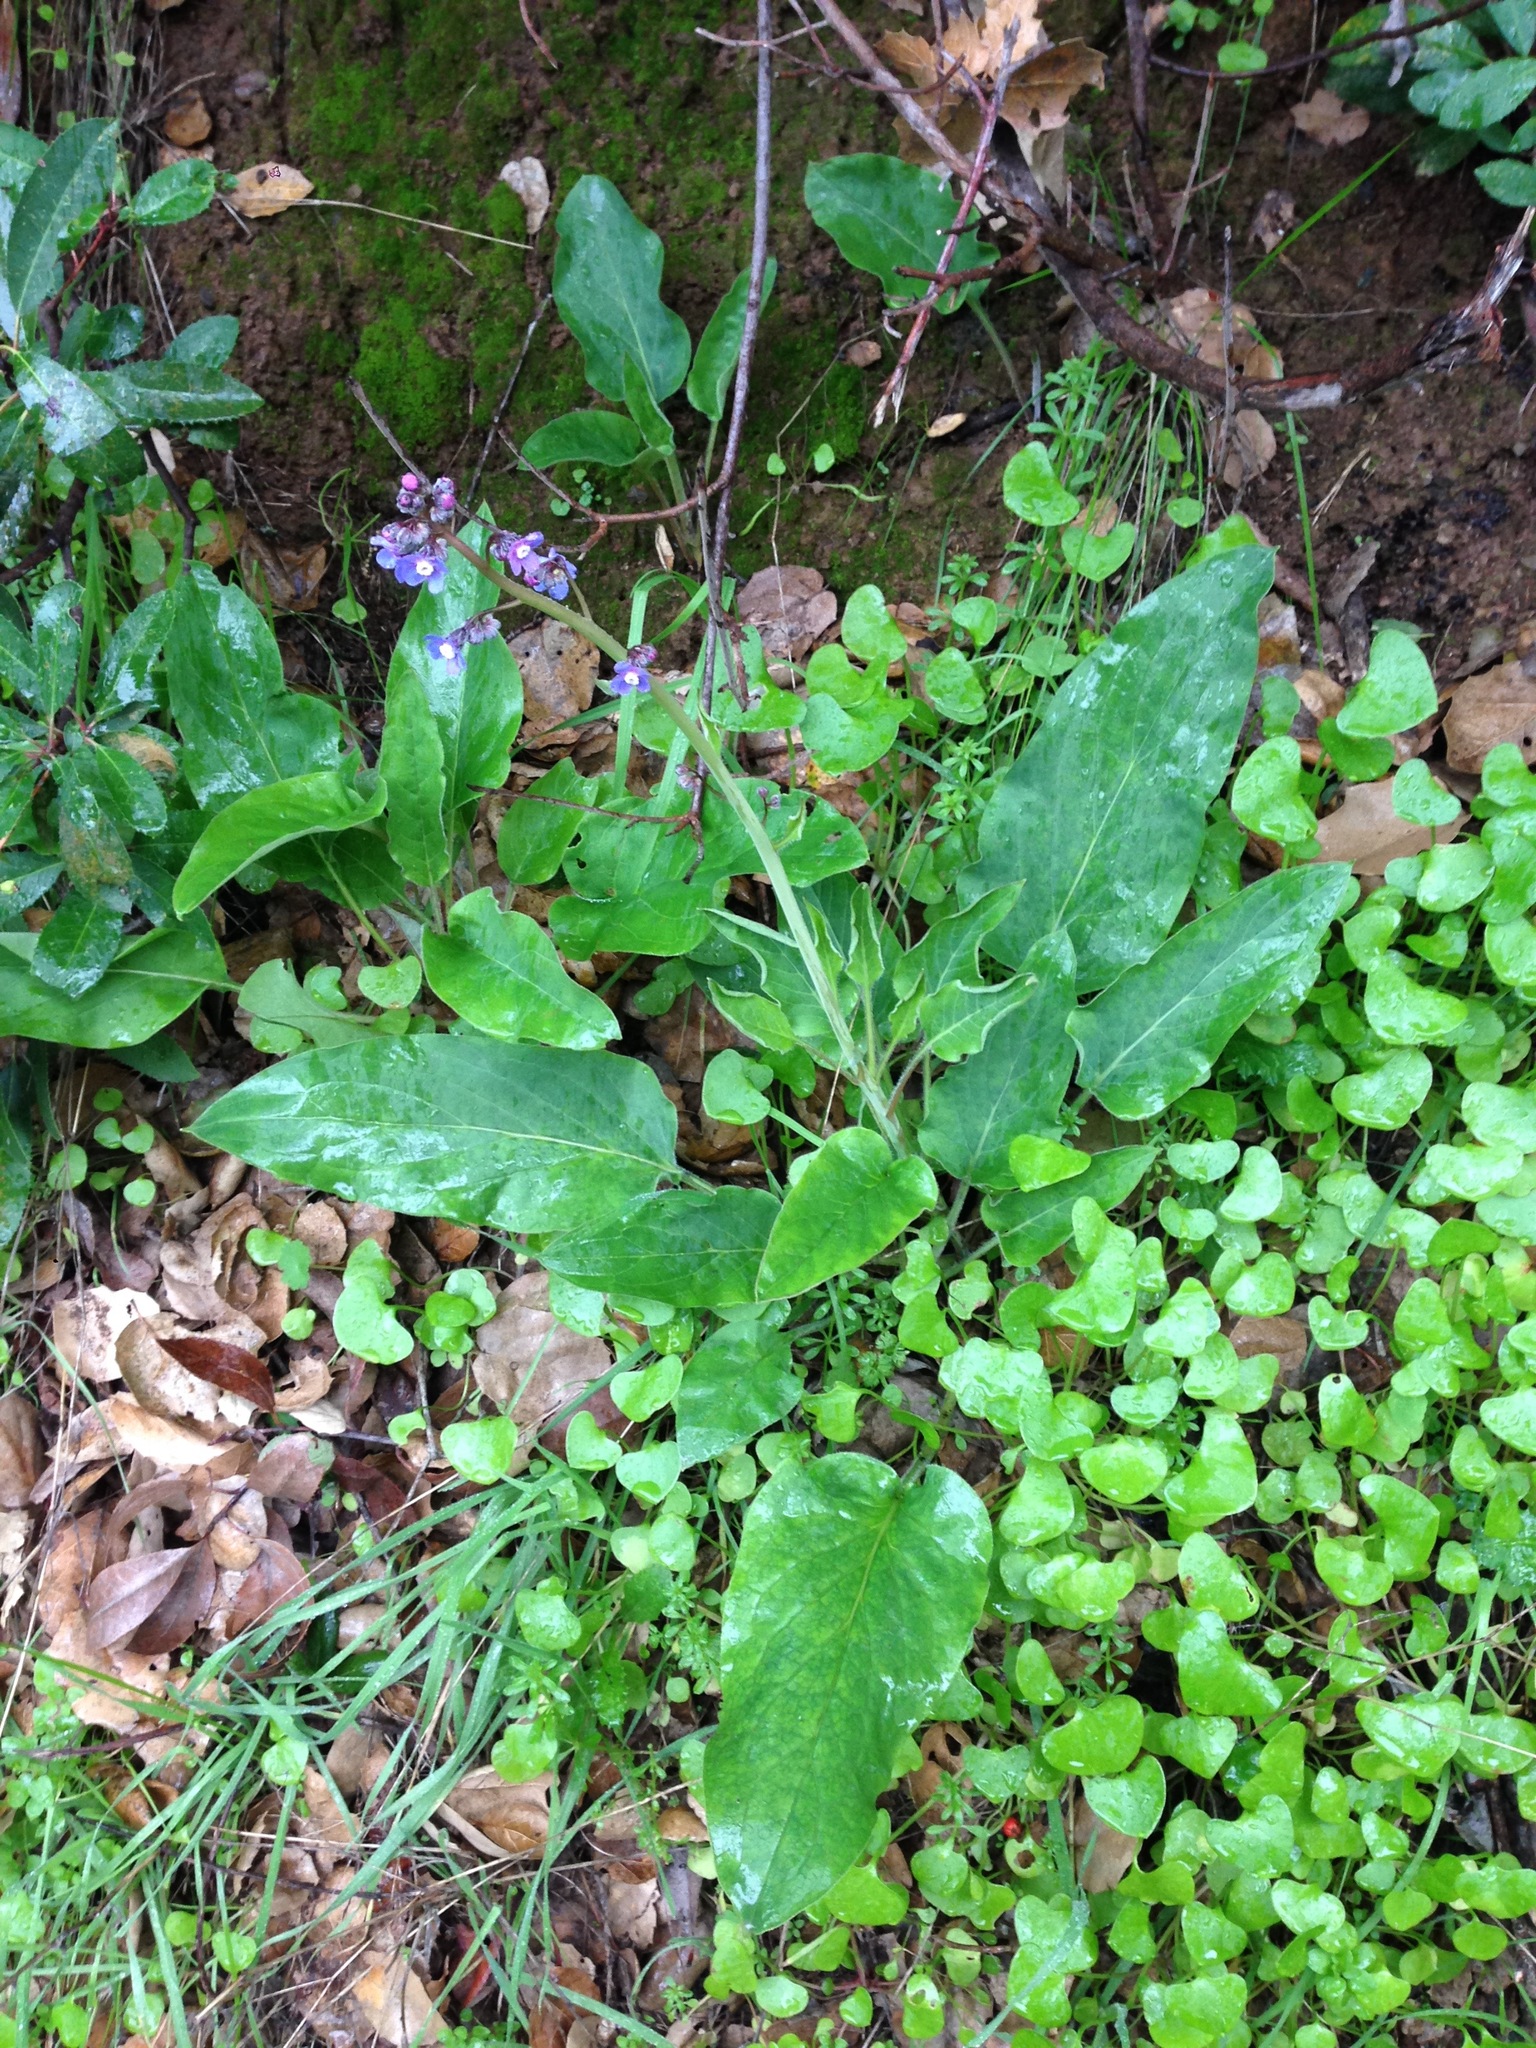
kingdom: Plantae
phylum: Tracheophyta
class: Magnoliopsida
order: Boraginales
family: Boraginaceae
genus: Adelinia
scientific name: Adelinia grande
